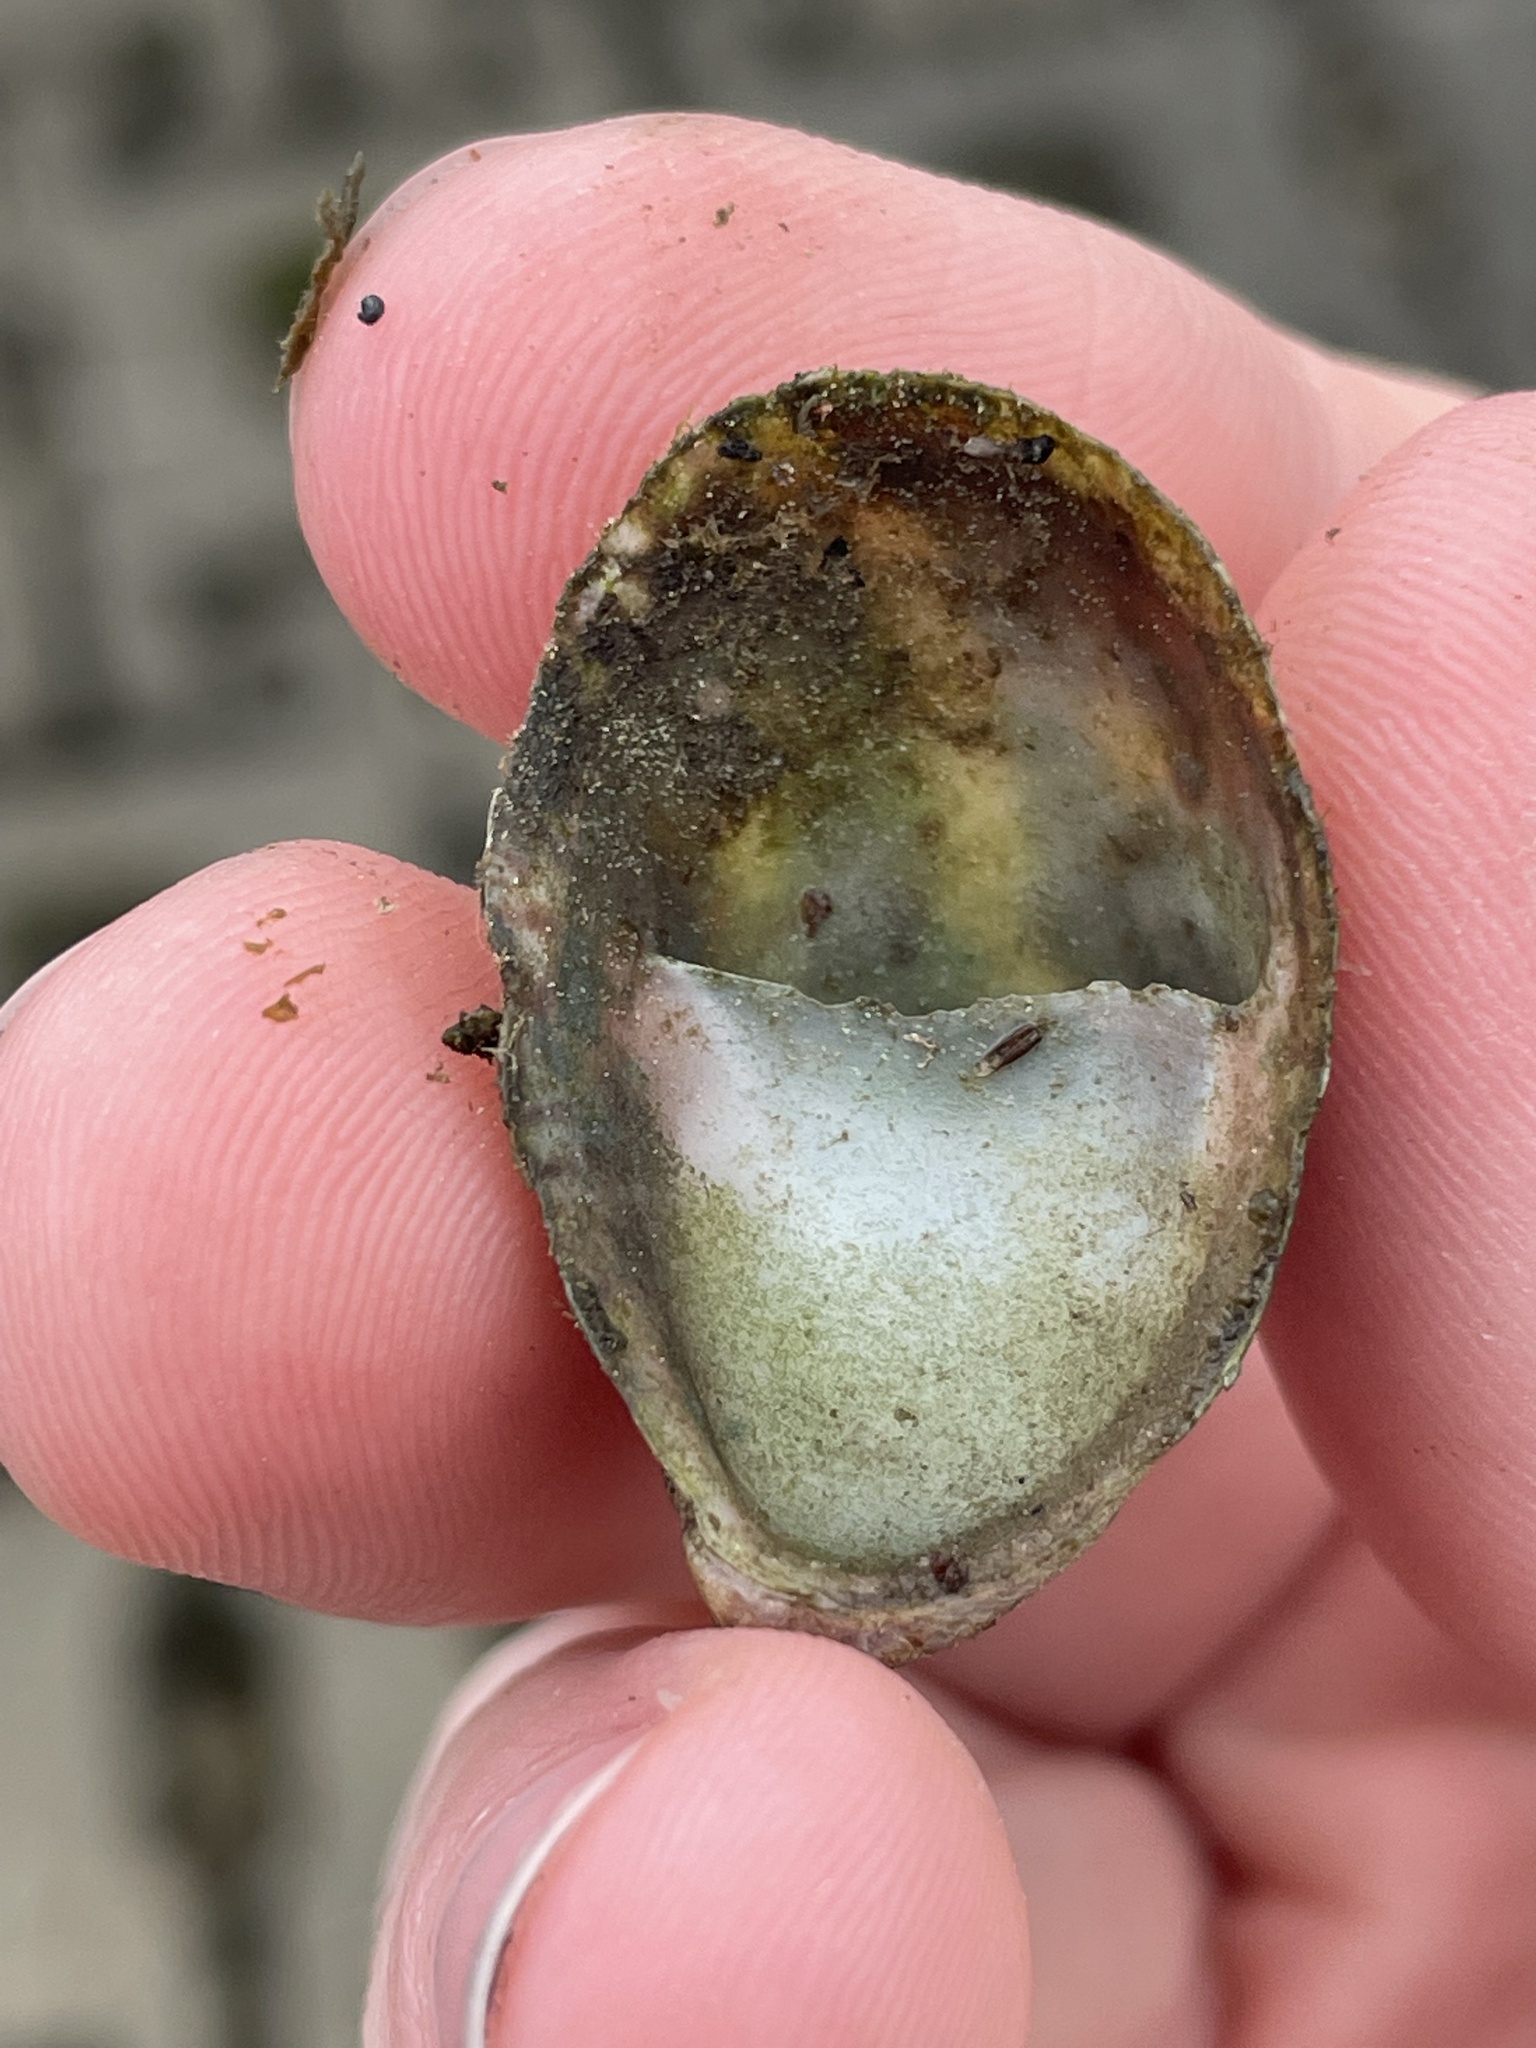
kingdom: Animalia
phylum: Mollusca
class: Gastropoda
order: Littorinimorpha
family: Calyptraeidae
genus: Crepidula
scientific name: Crepidula fornicata
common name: Slipper limpet
